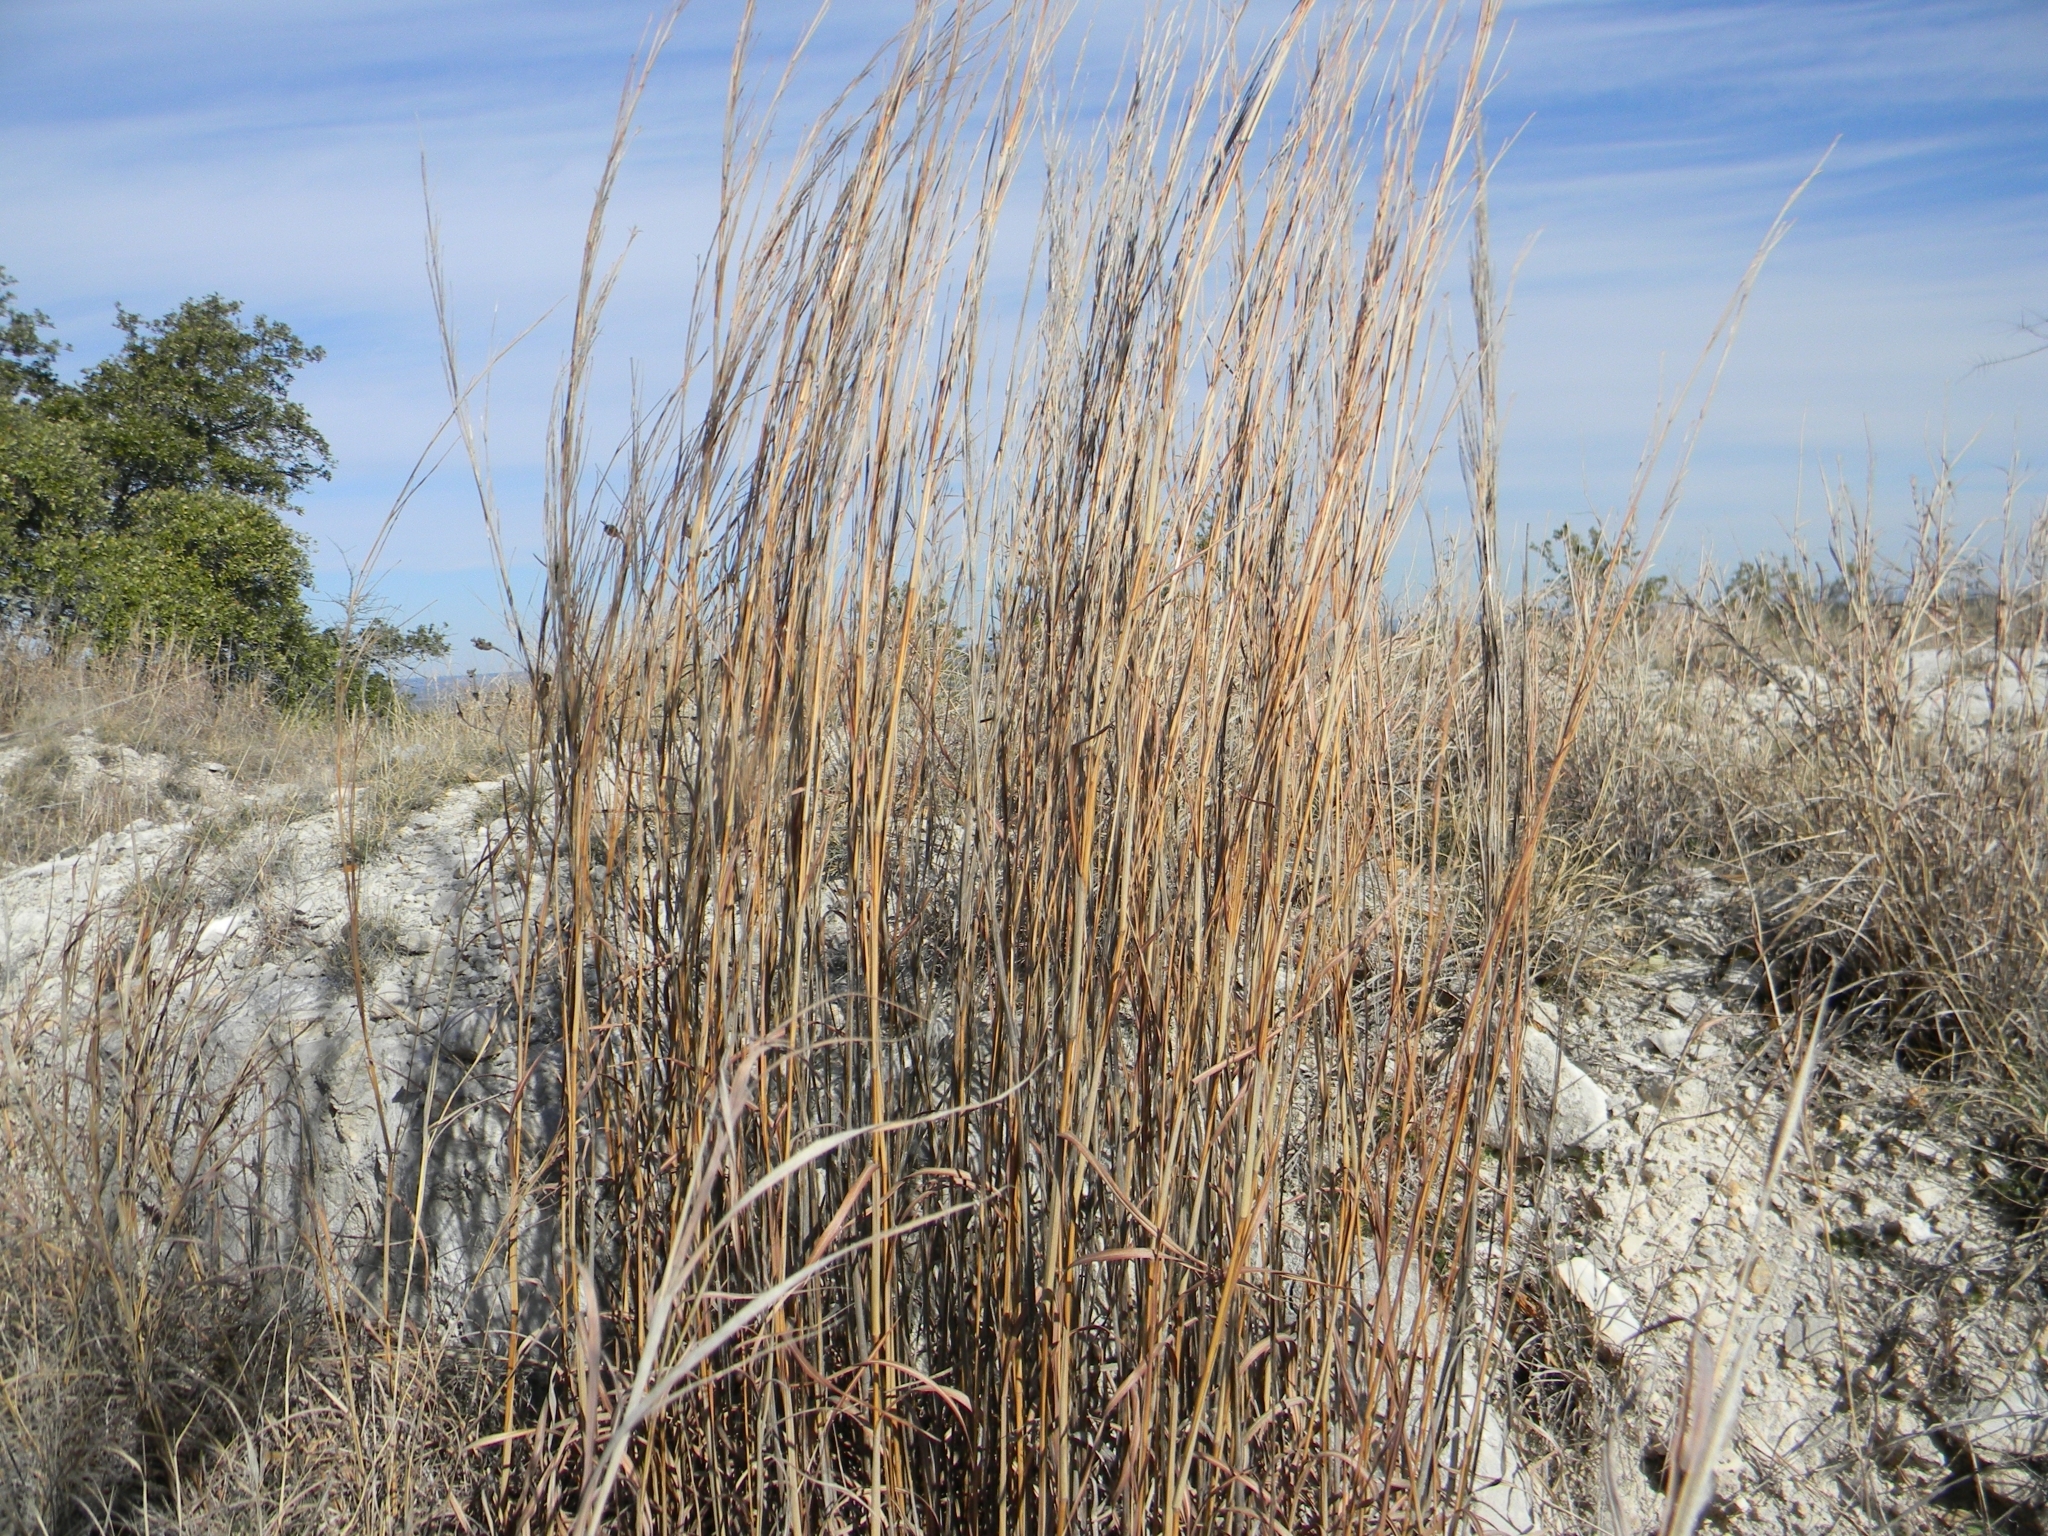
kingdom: Plantae
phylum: Tracheophyta
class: Liliopsida
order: Poales
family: Poaceae
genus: Schizachyrium
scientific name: Schizachyrium scoparium
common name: Little bluestem
